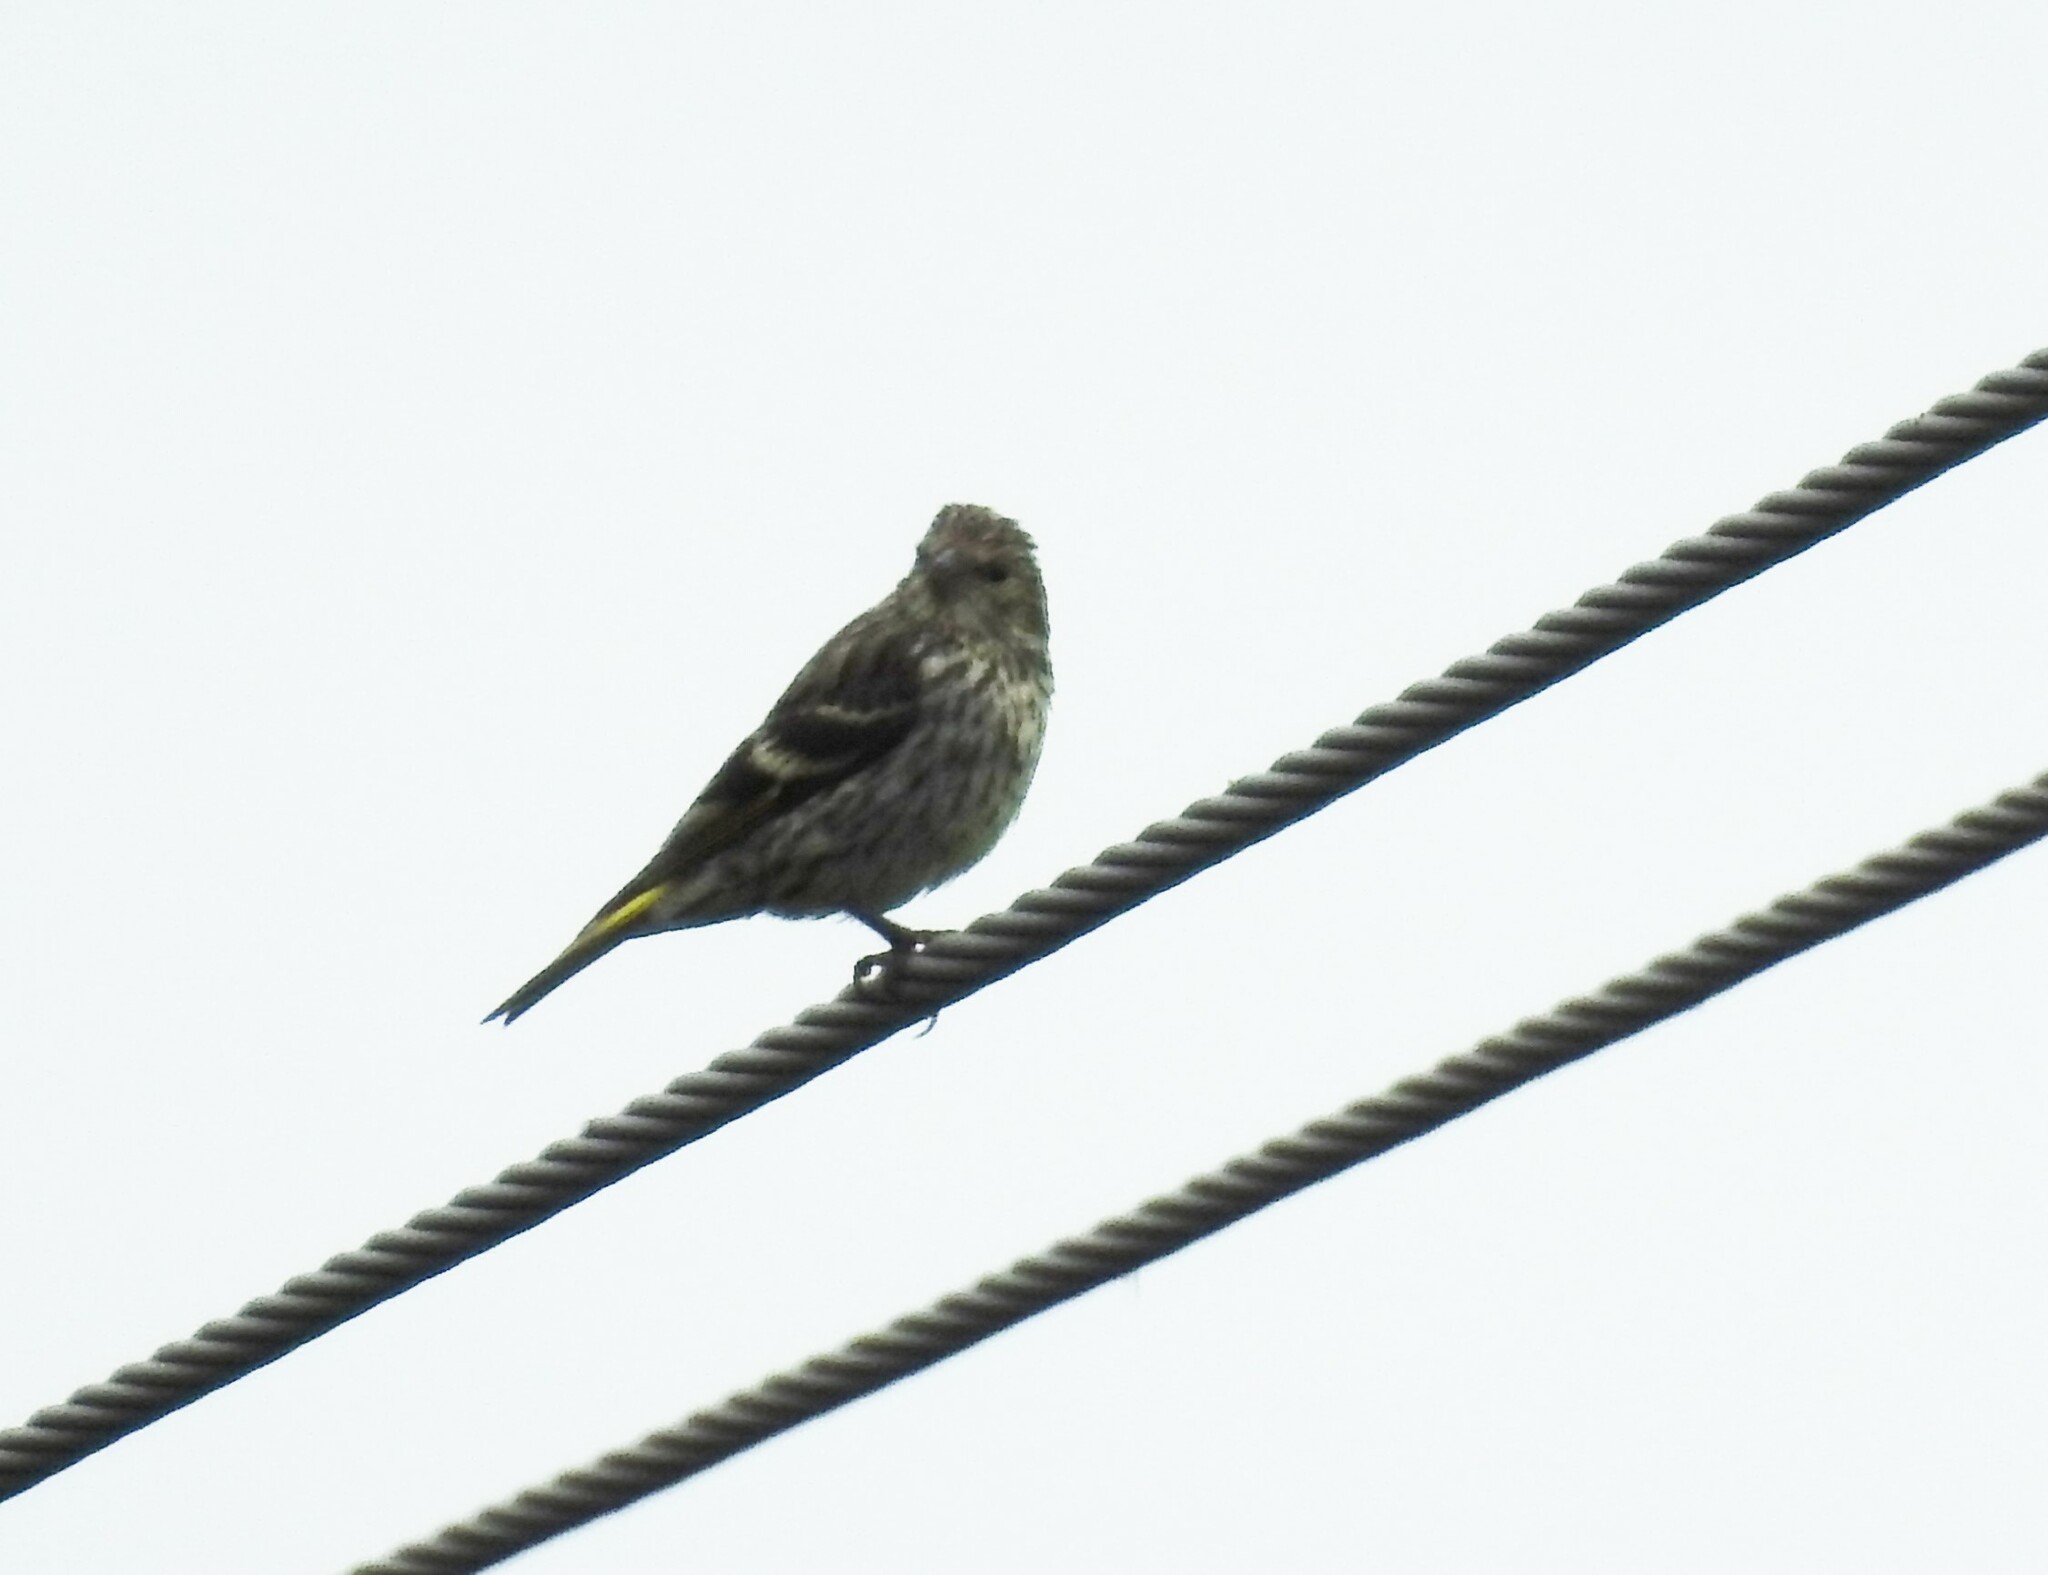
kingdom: Animalia
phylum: Chordata
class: Aves
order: Passeriformes
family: Fringillidae
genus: Spinus
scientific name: Spinus spinus
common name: Eurasian siskin
